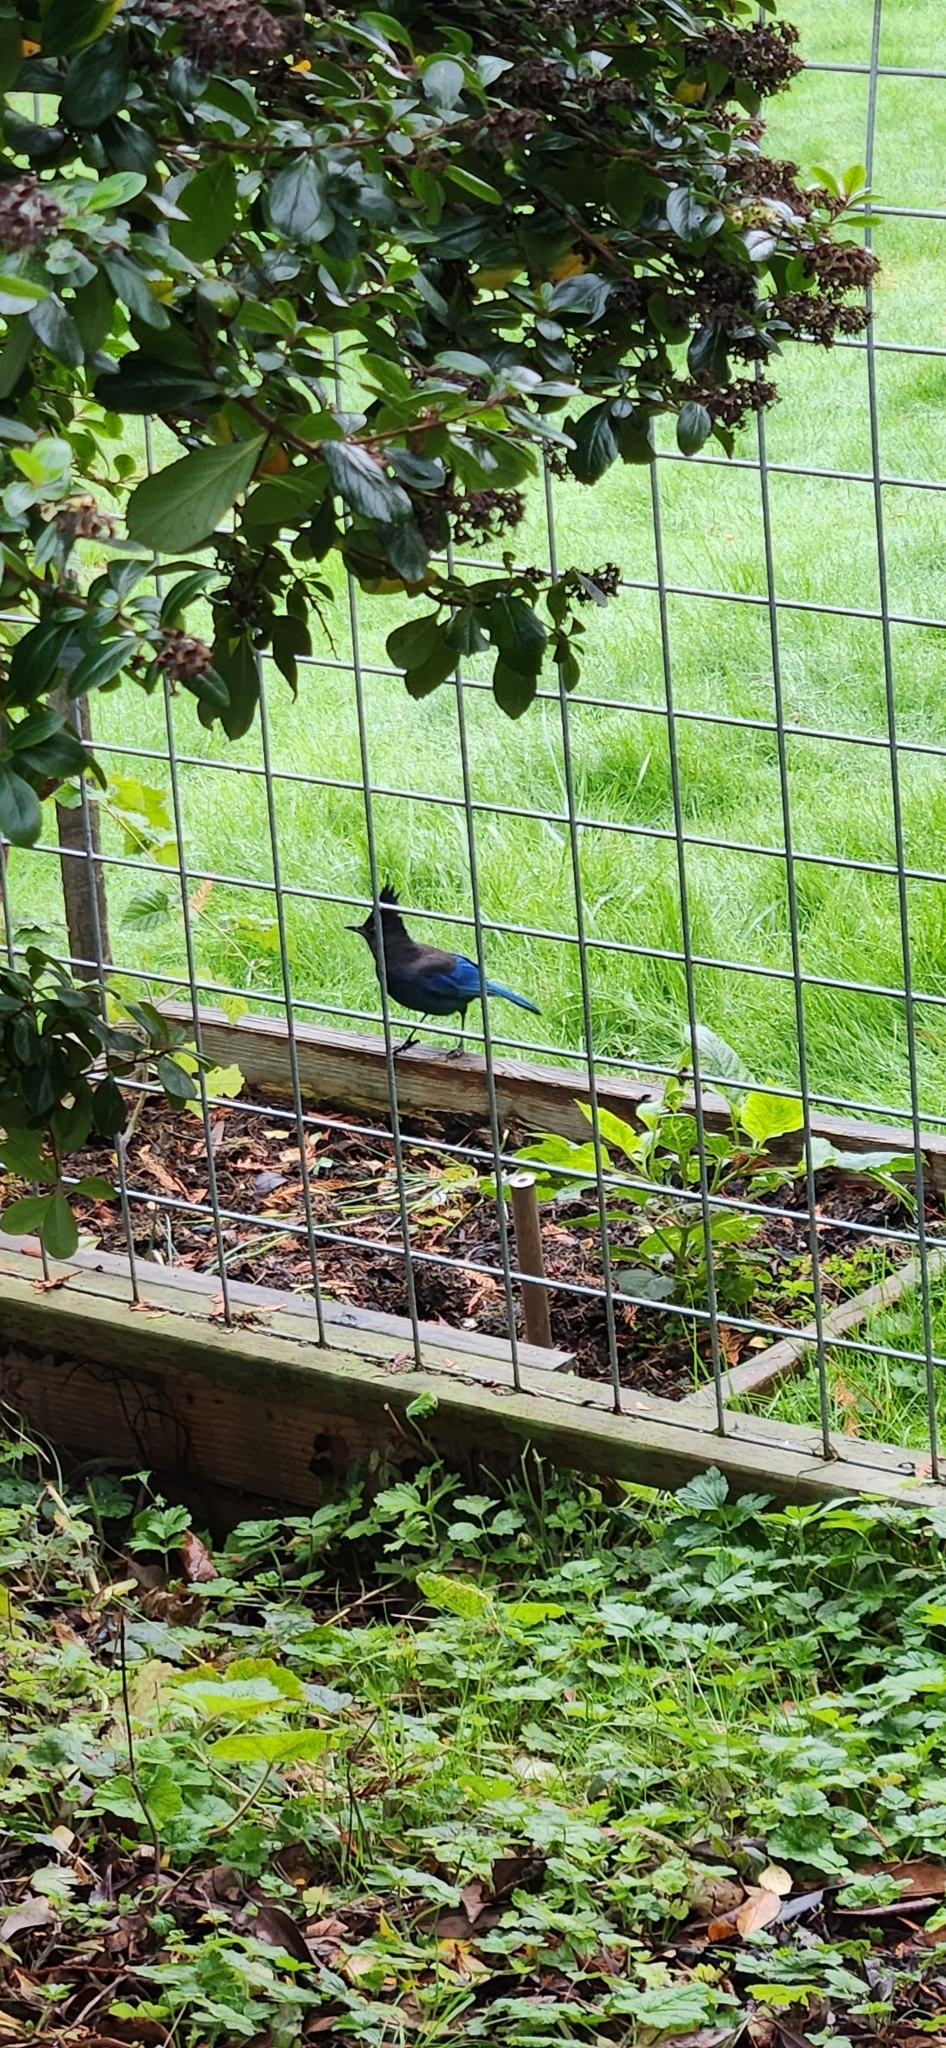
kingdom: Animalia
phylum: Chordata
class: Aves
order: Passeriformes
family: Corvidae
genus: Cyanocitta
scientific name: Cyanocitta stelleri
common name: Steller's jay
